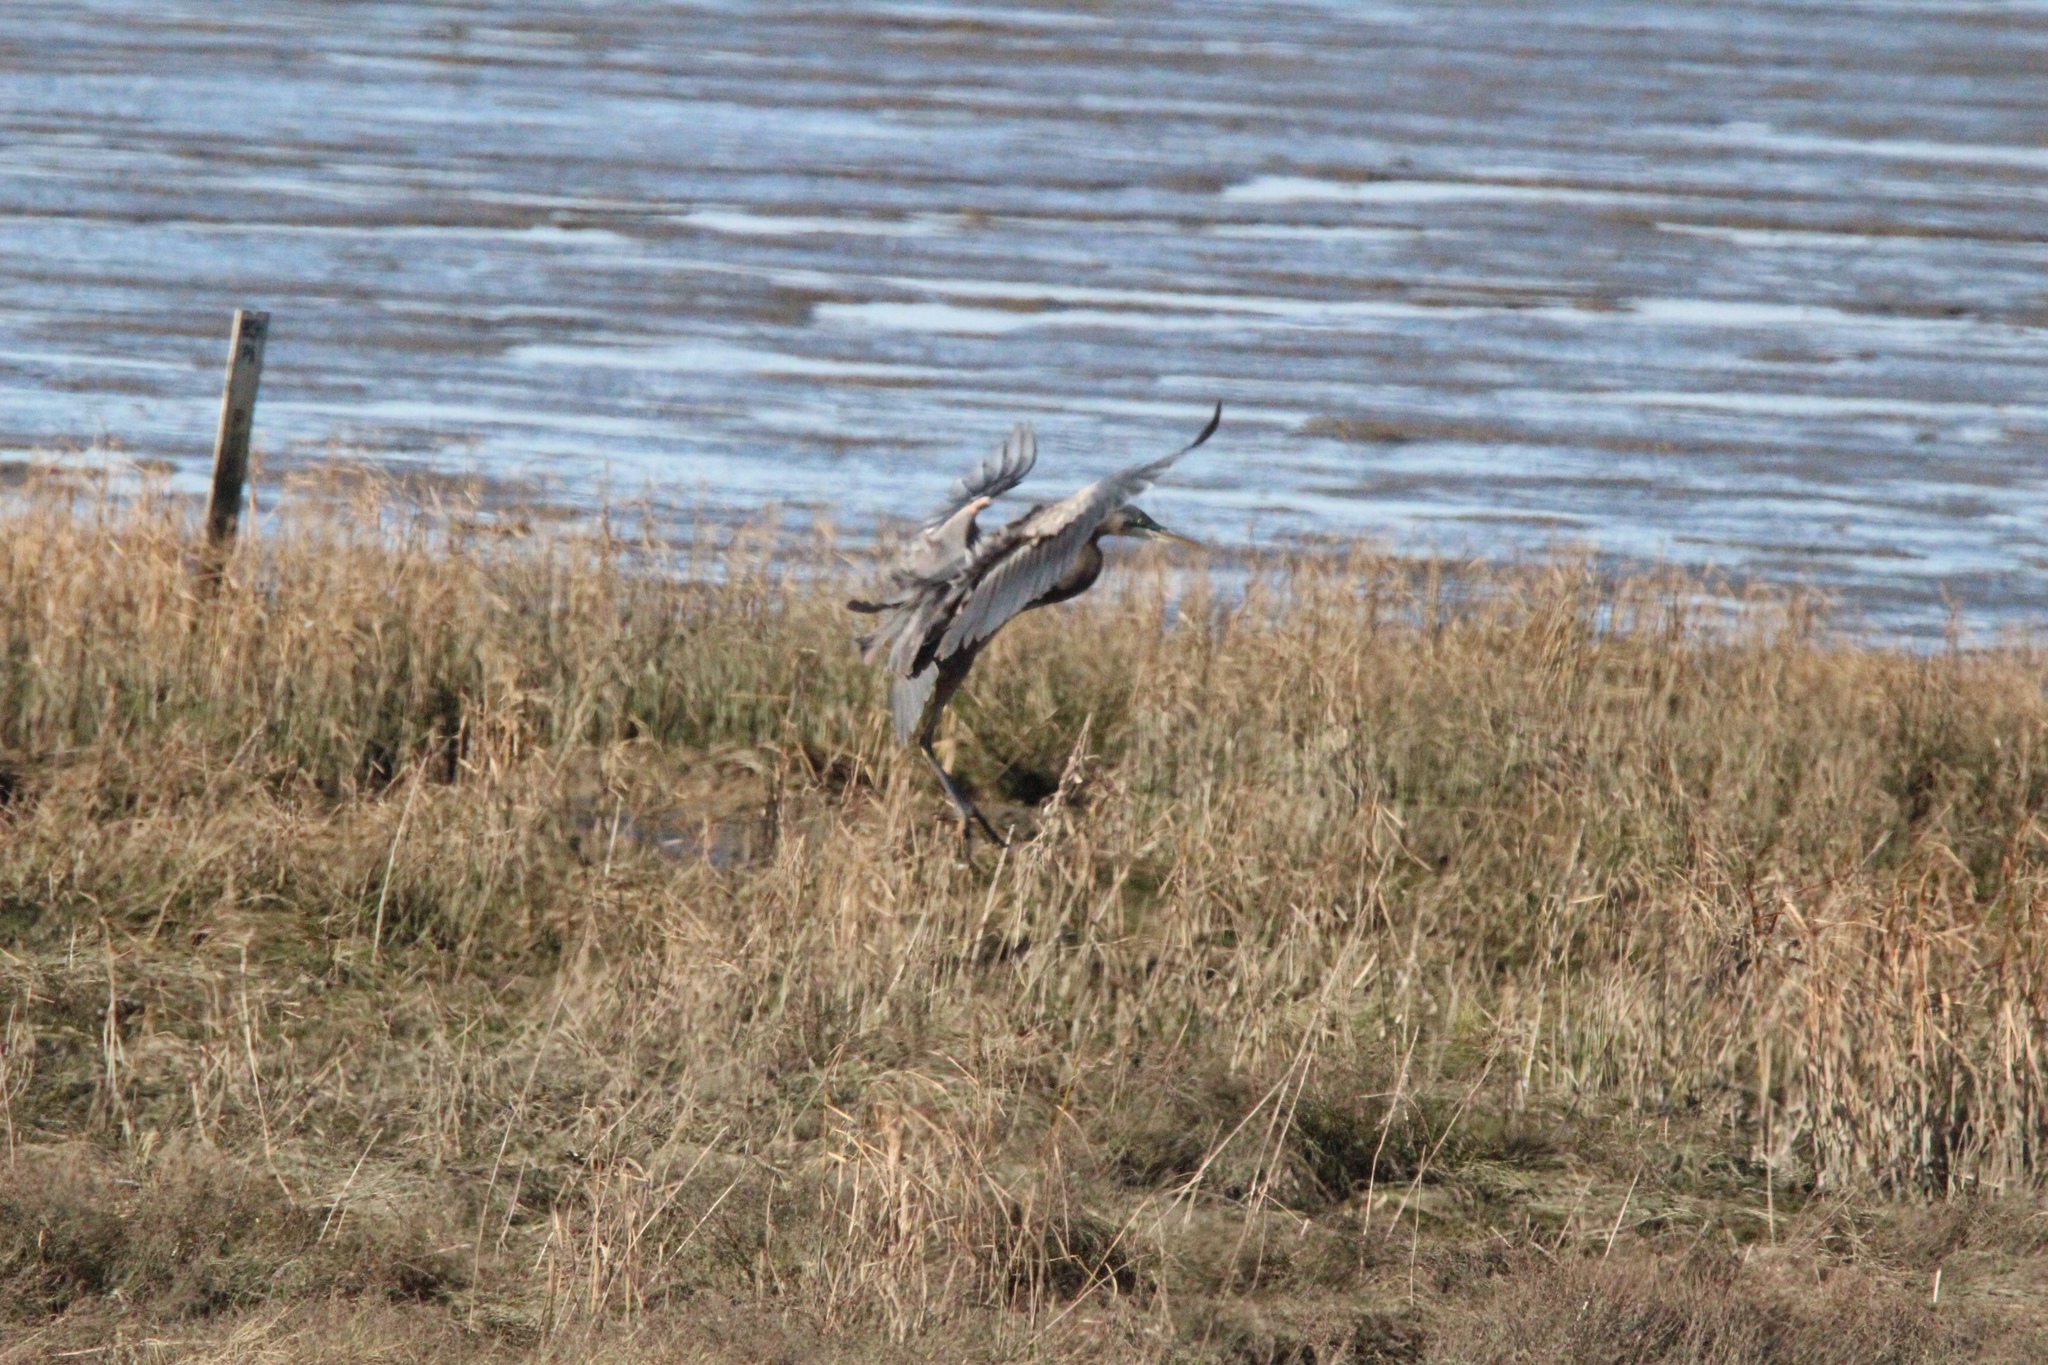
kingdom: Animalia
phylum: Chordata
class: Aves
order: Pelecaniformes
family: Ardeidae
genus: Ardea
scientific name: Ardea herodias
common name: Great blue heron
